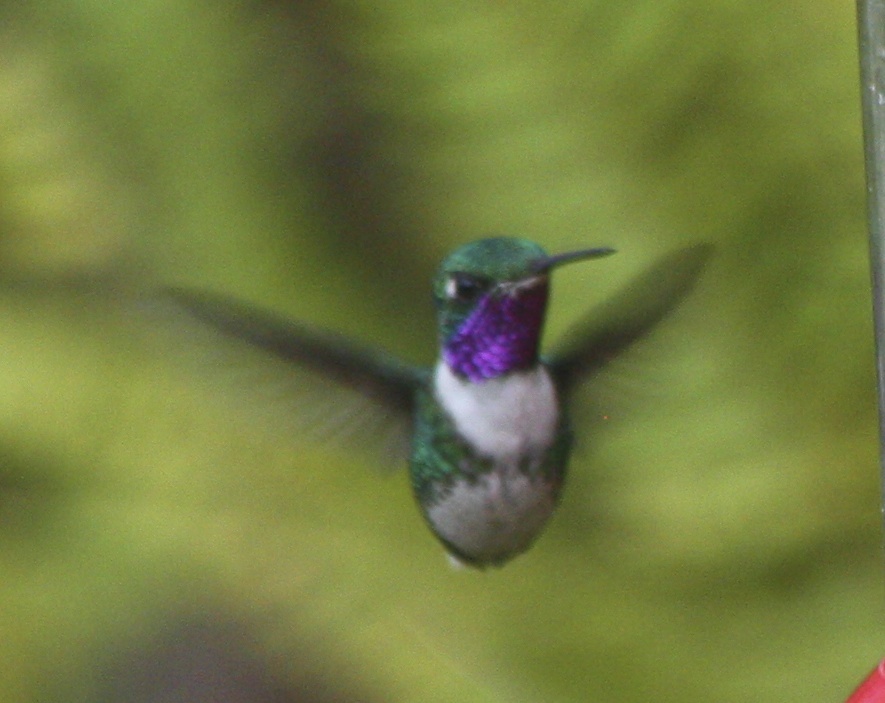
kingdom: Animalia
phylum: Chordata
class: Aves
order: Apodiformes
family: Trochilidae
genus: Chaetocercus
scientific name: Chaetocercus mulsant
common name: White-bellied woodstar
